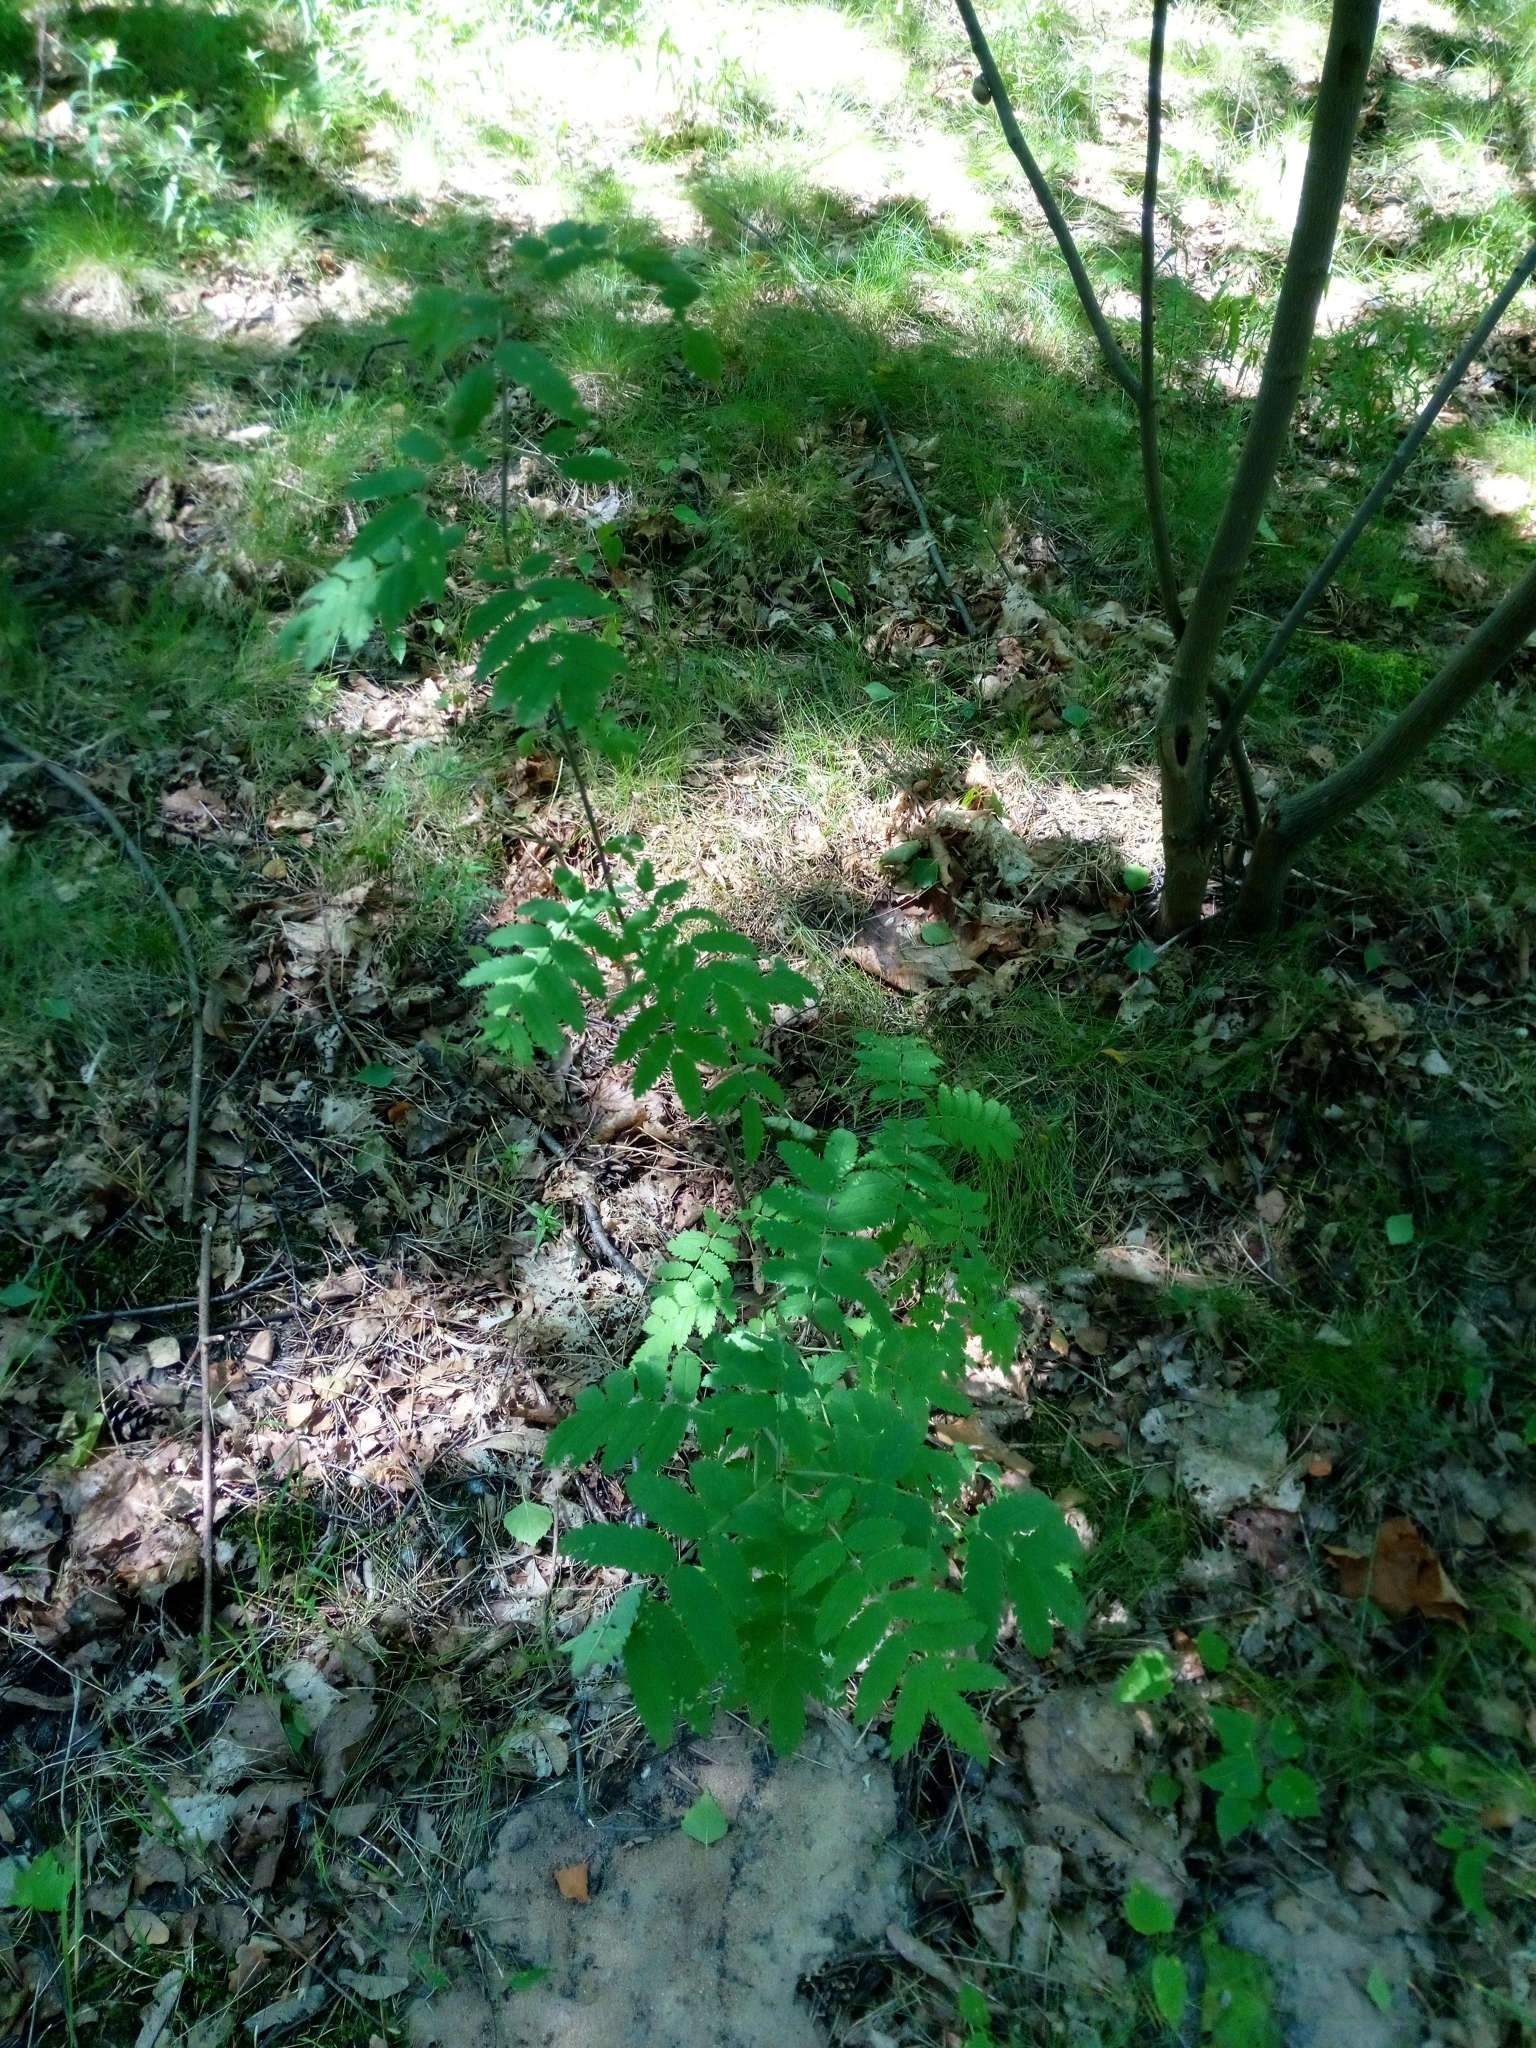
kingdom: Plantae
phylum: Tracheophyta
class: Magnoliopsida
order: Rosales
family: Rosaceae
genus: Sorbus
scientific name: Sorbus aucuparia
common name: Rowan
